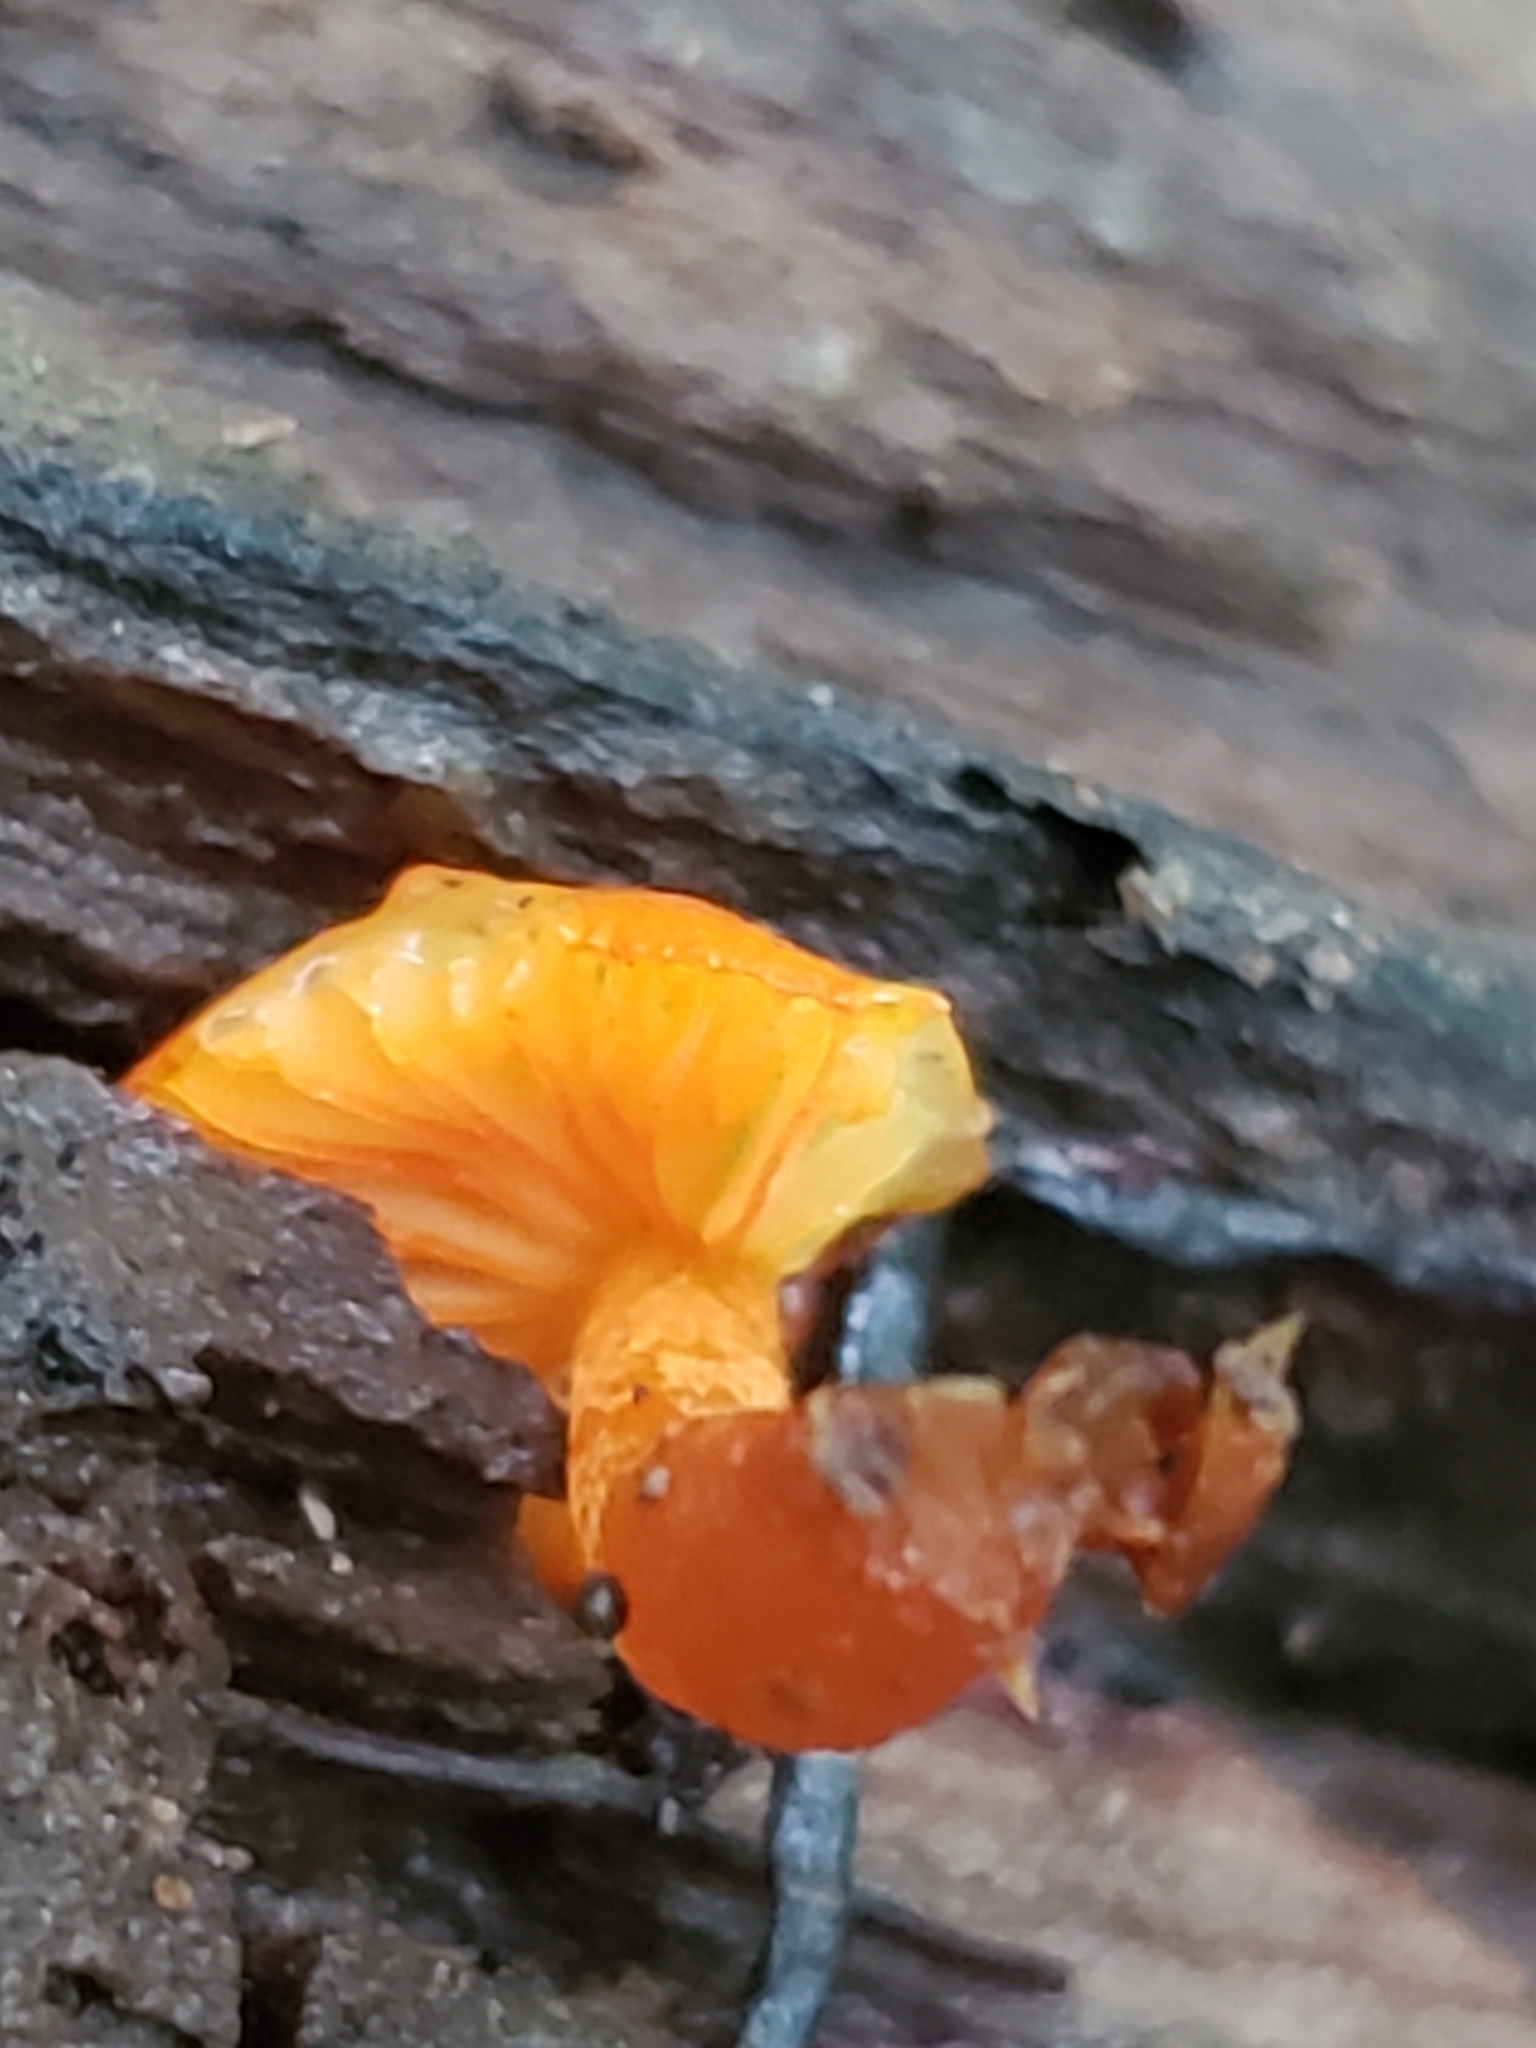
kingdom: Fungi
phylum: Basidiomycota
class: Agaricomycetes
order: Agaricales
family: Mycenaceae
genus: Mycena
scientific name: Mycena leaiana
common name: Orange mycena
